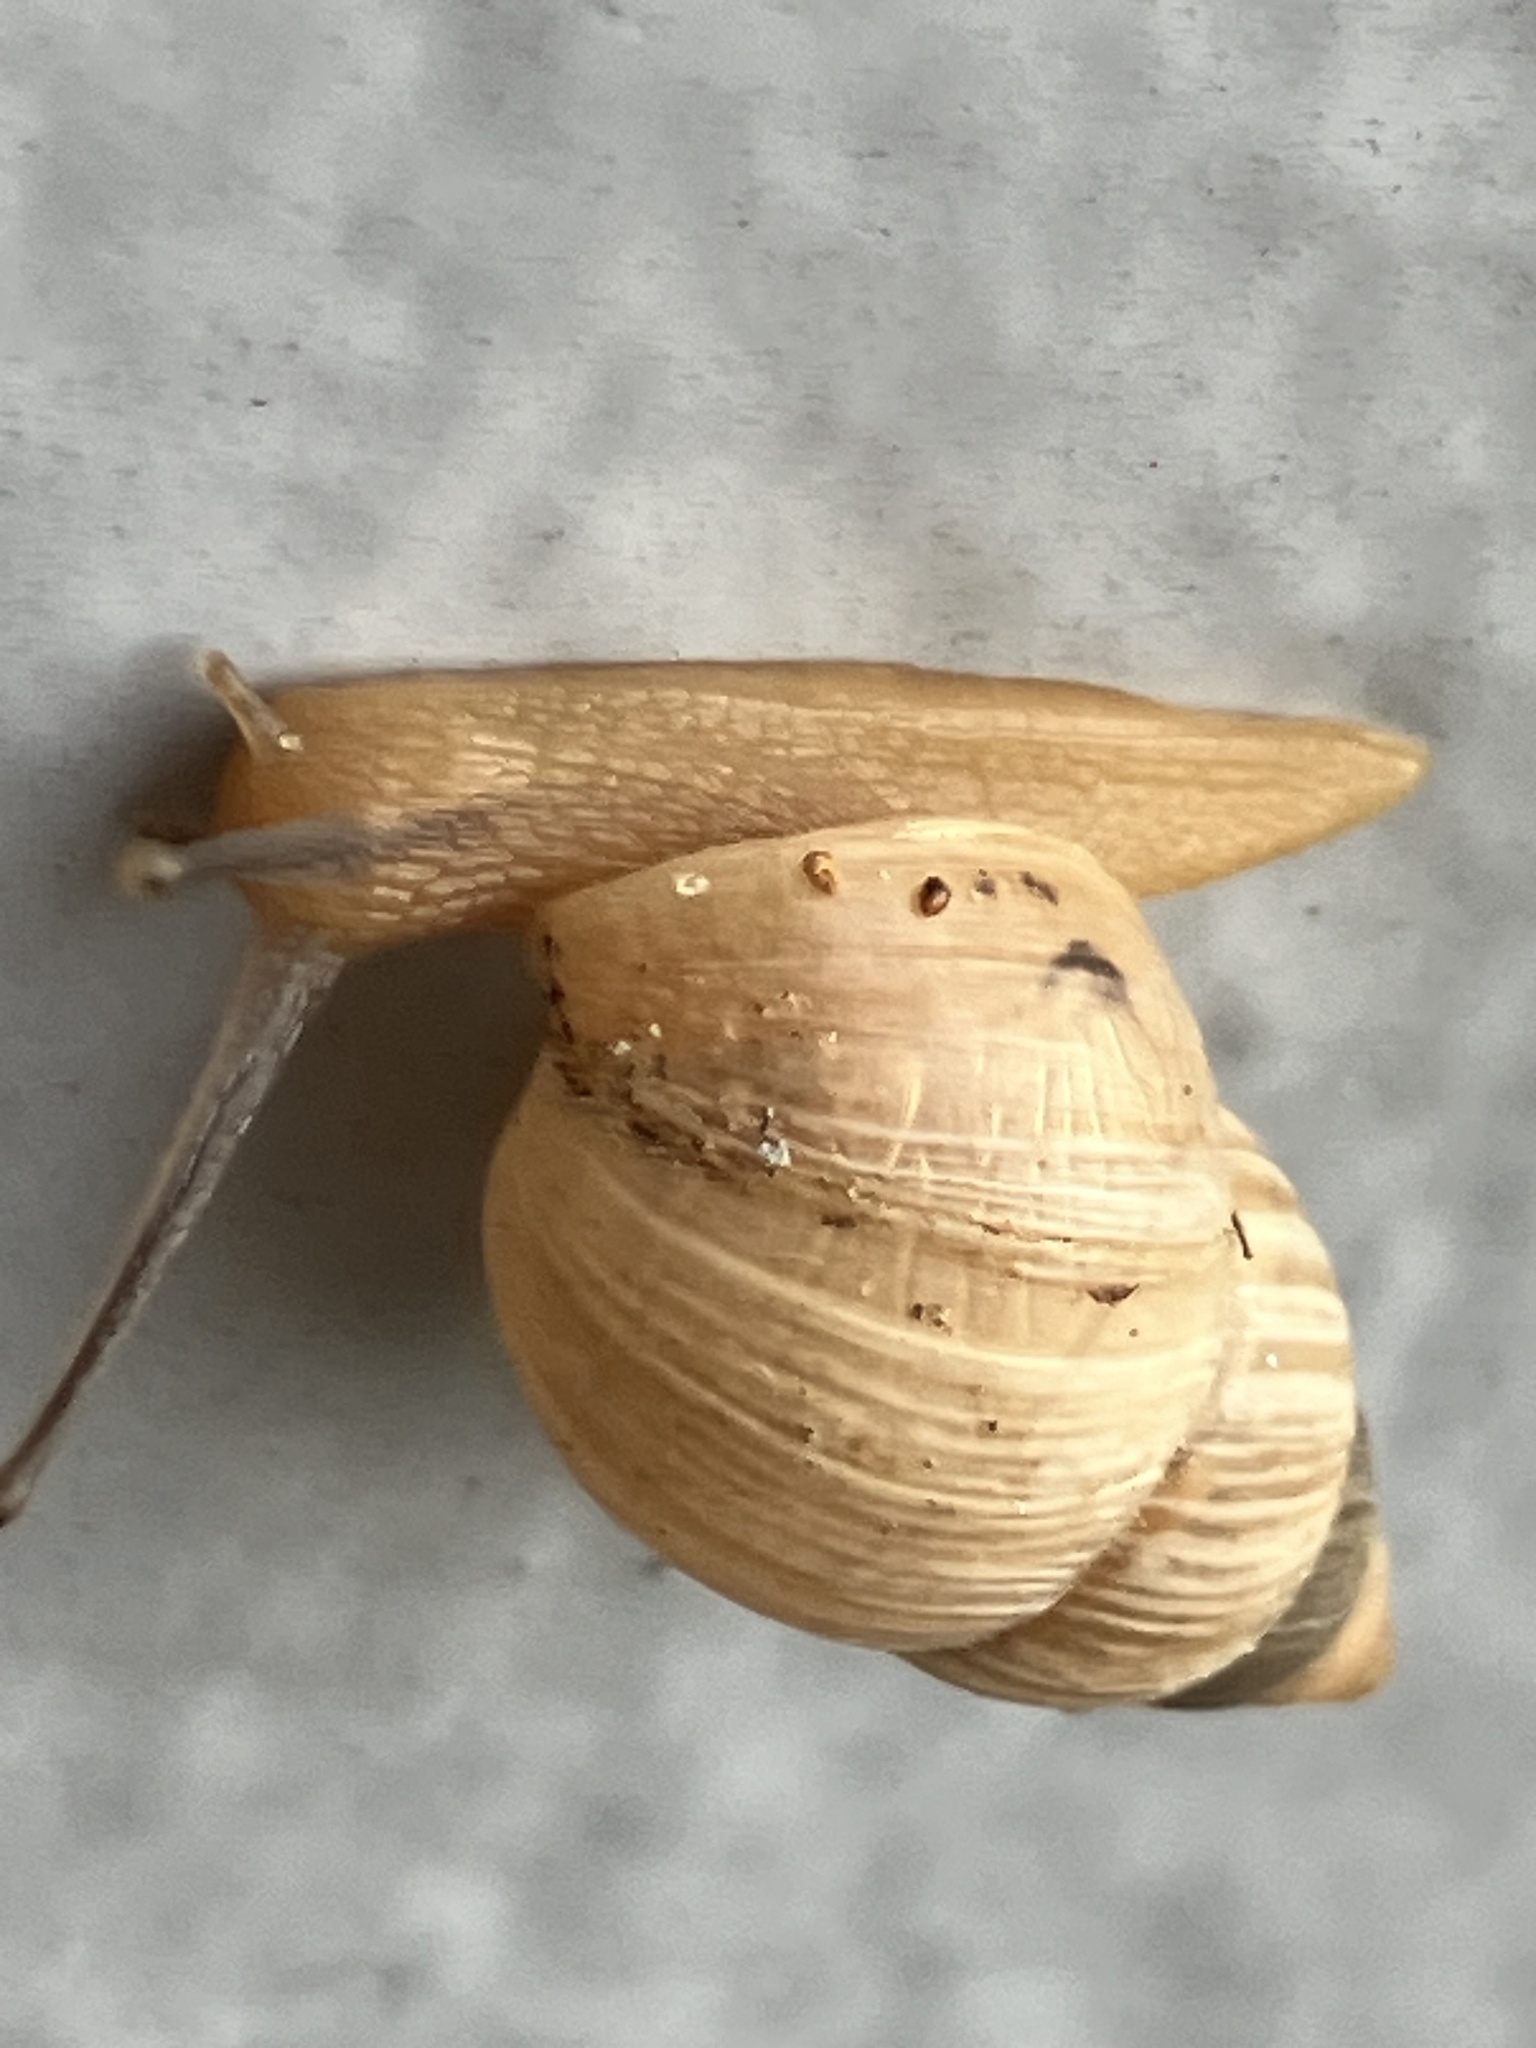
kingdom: Animalia
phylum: Mollusca
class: Gastropoda
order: Stylommatophora
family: Bulimulidae
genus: Bulimulus
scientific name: Bulimulus bonariensis
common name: Snail
